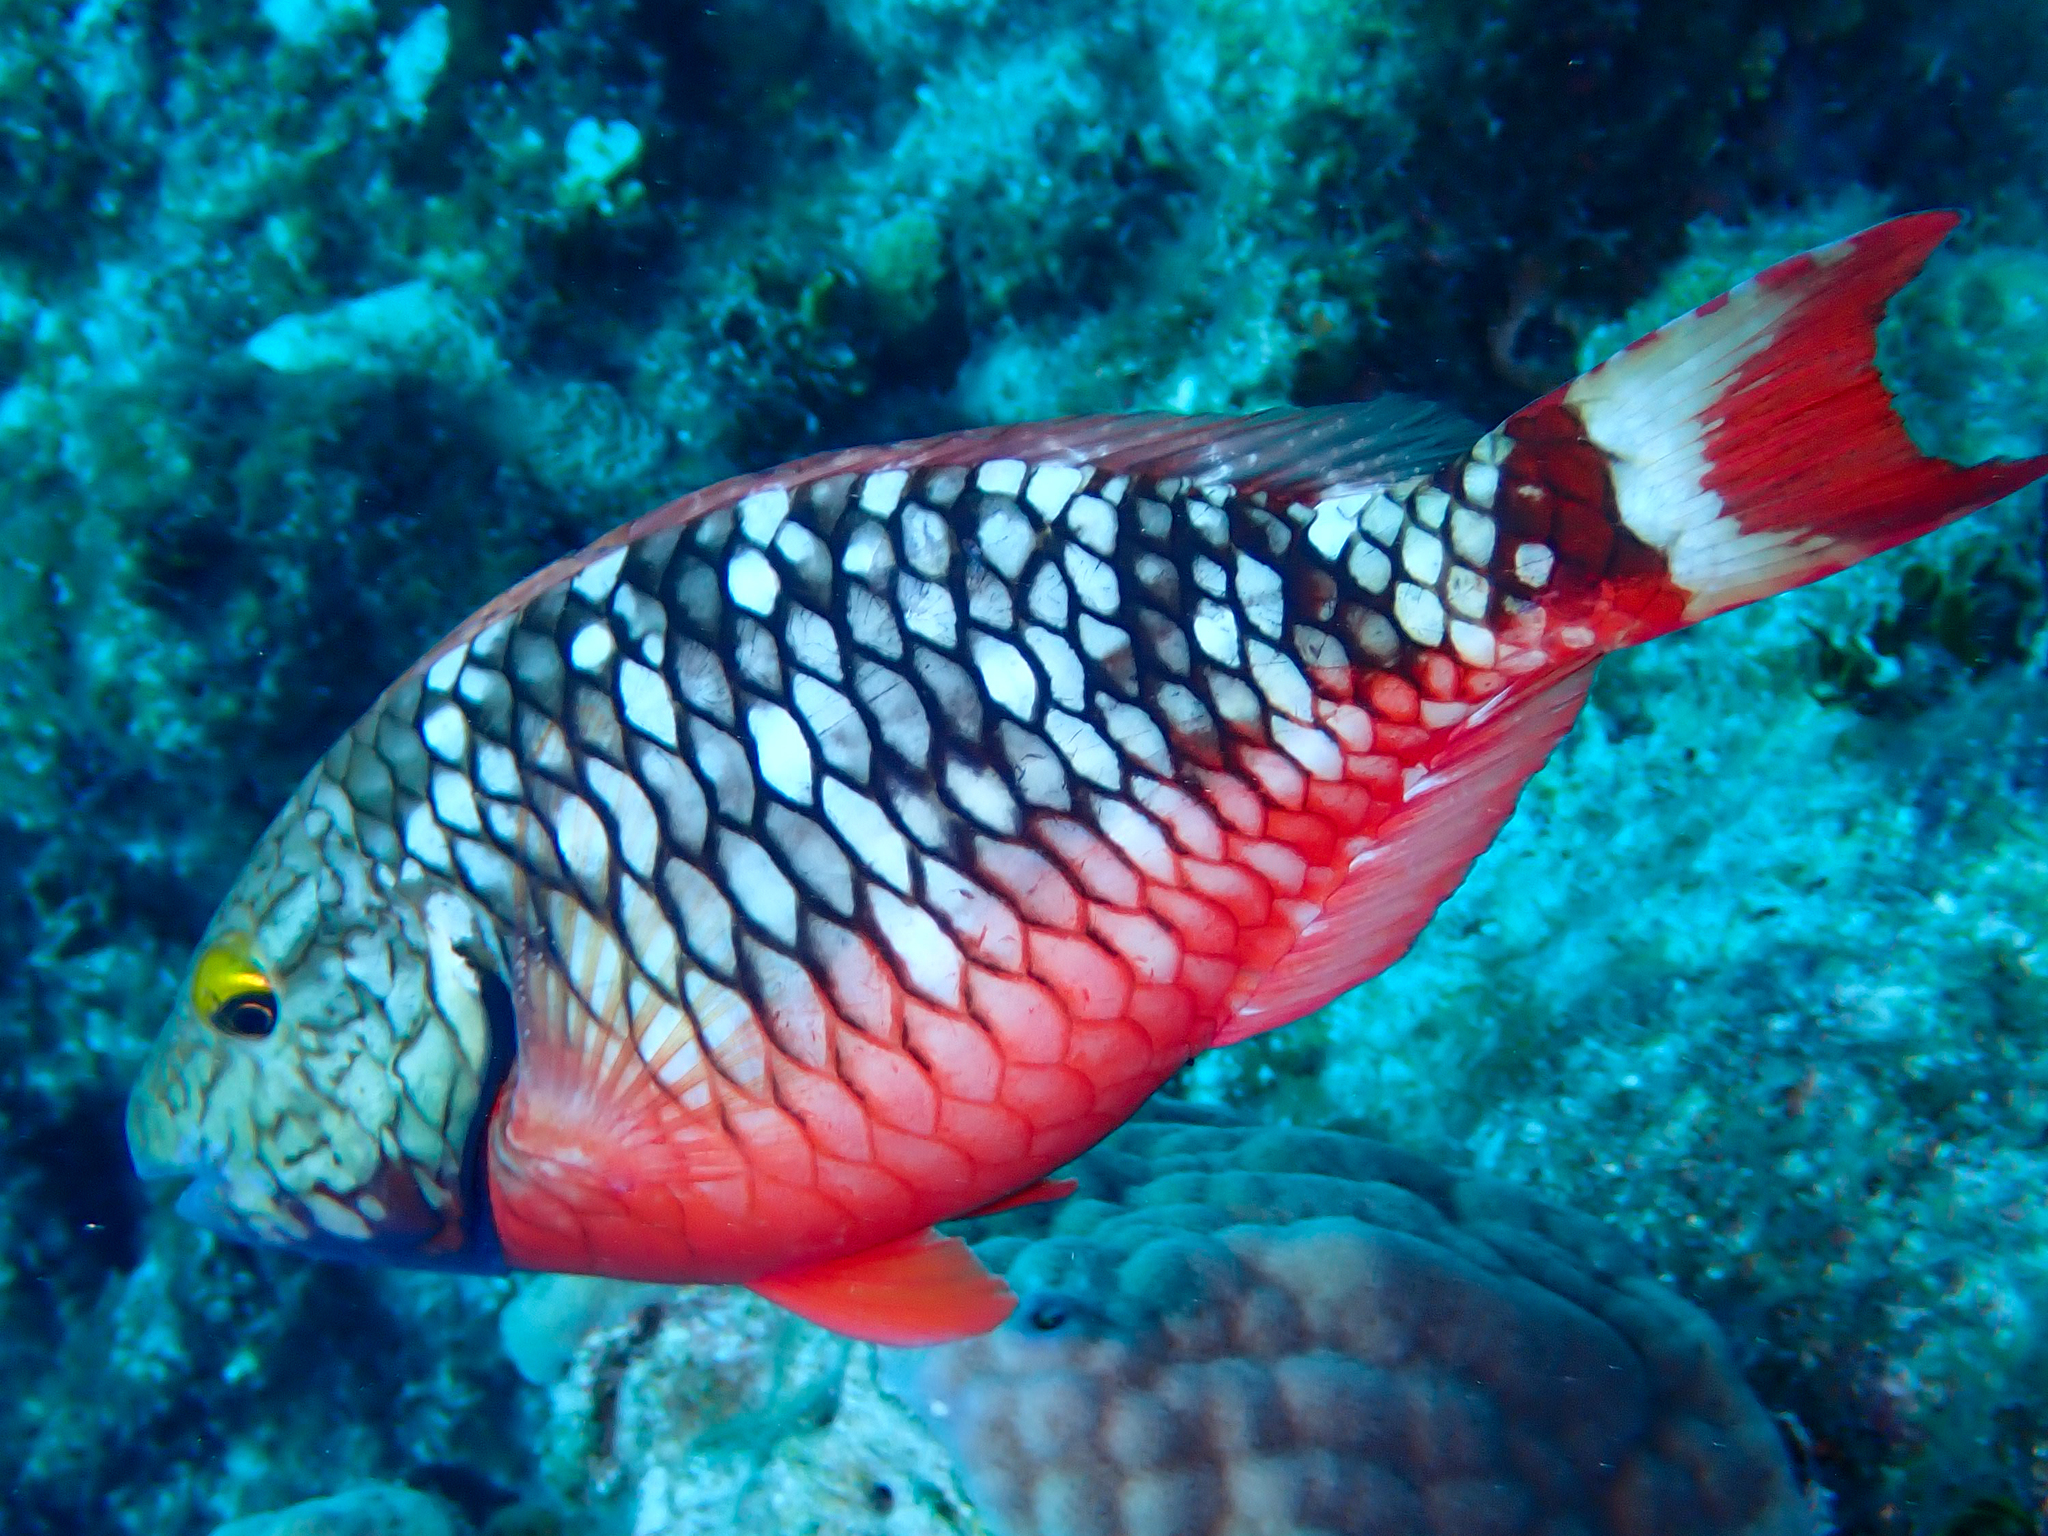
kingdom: Animalia
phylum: Chordata
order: Perciformes
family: Scaridae
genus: Sparisoma
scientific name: Sparisoma viride
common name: Stoplight parrotfish
